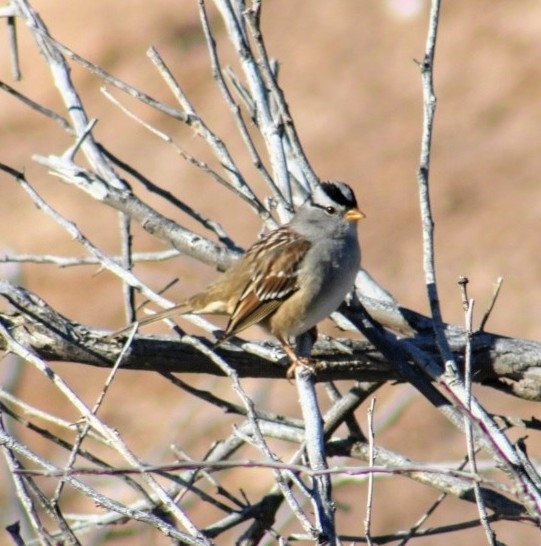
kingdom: Animalia
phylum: Chordata
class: Aves
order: Passeriformes
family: Passerellidae
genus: Zonotrichia
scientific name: Zonotrichia leucophrys
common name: White-crowned sparrow
